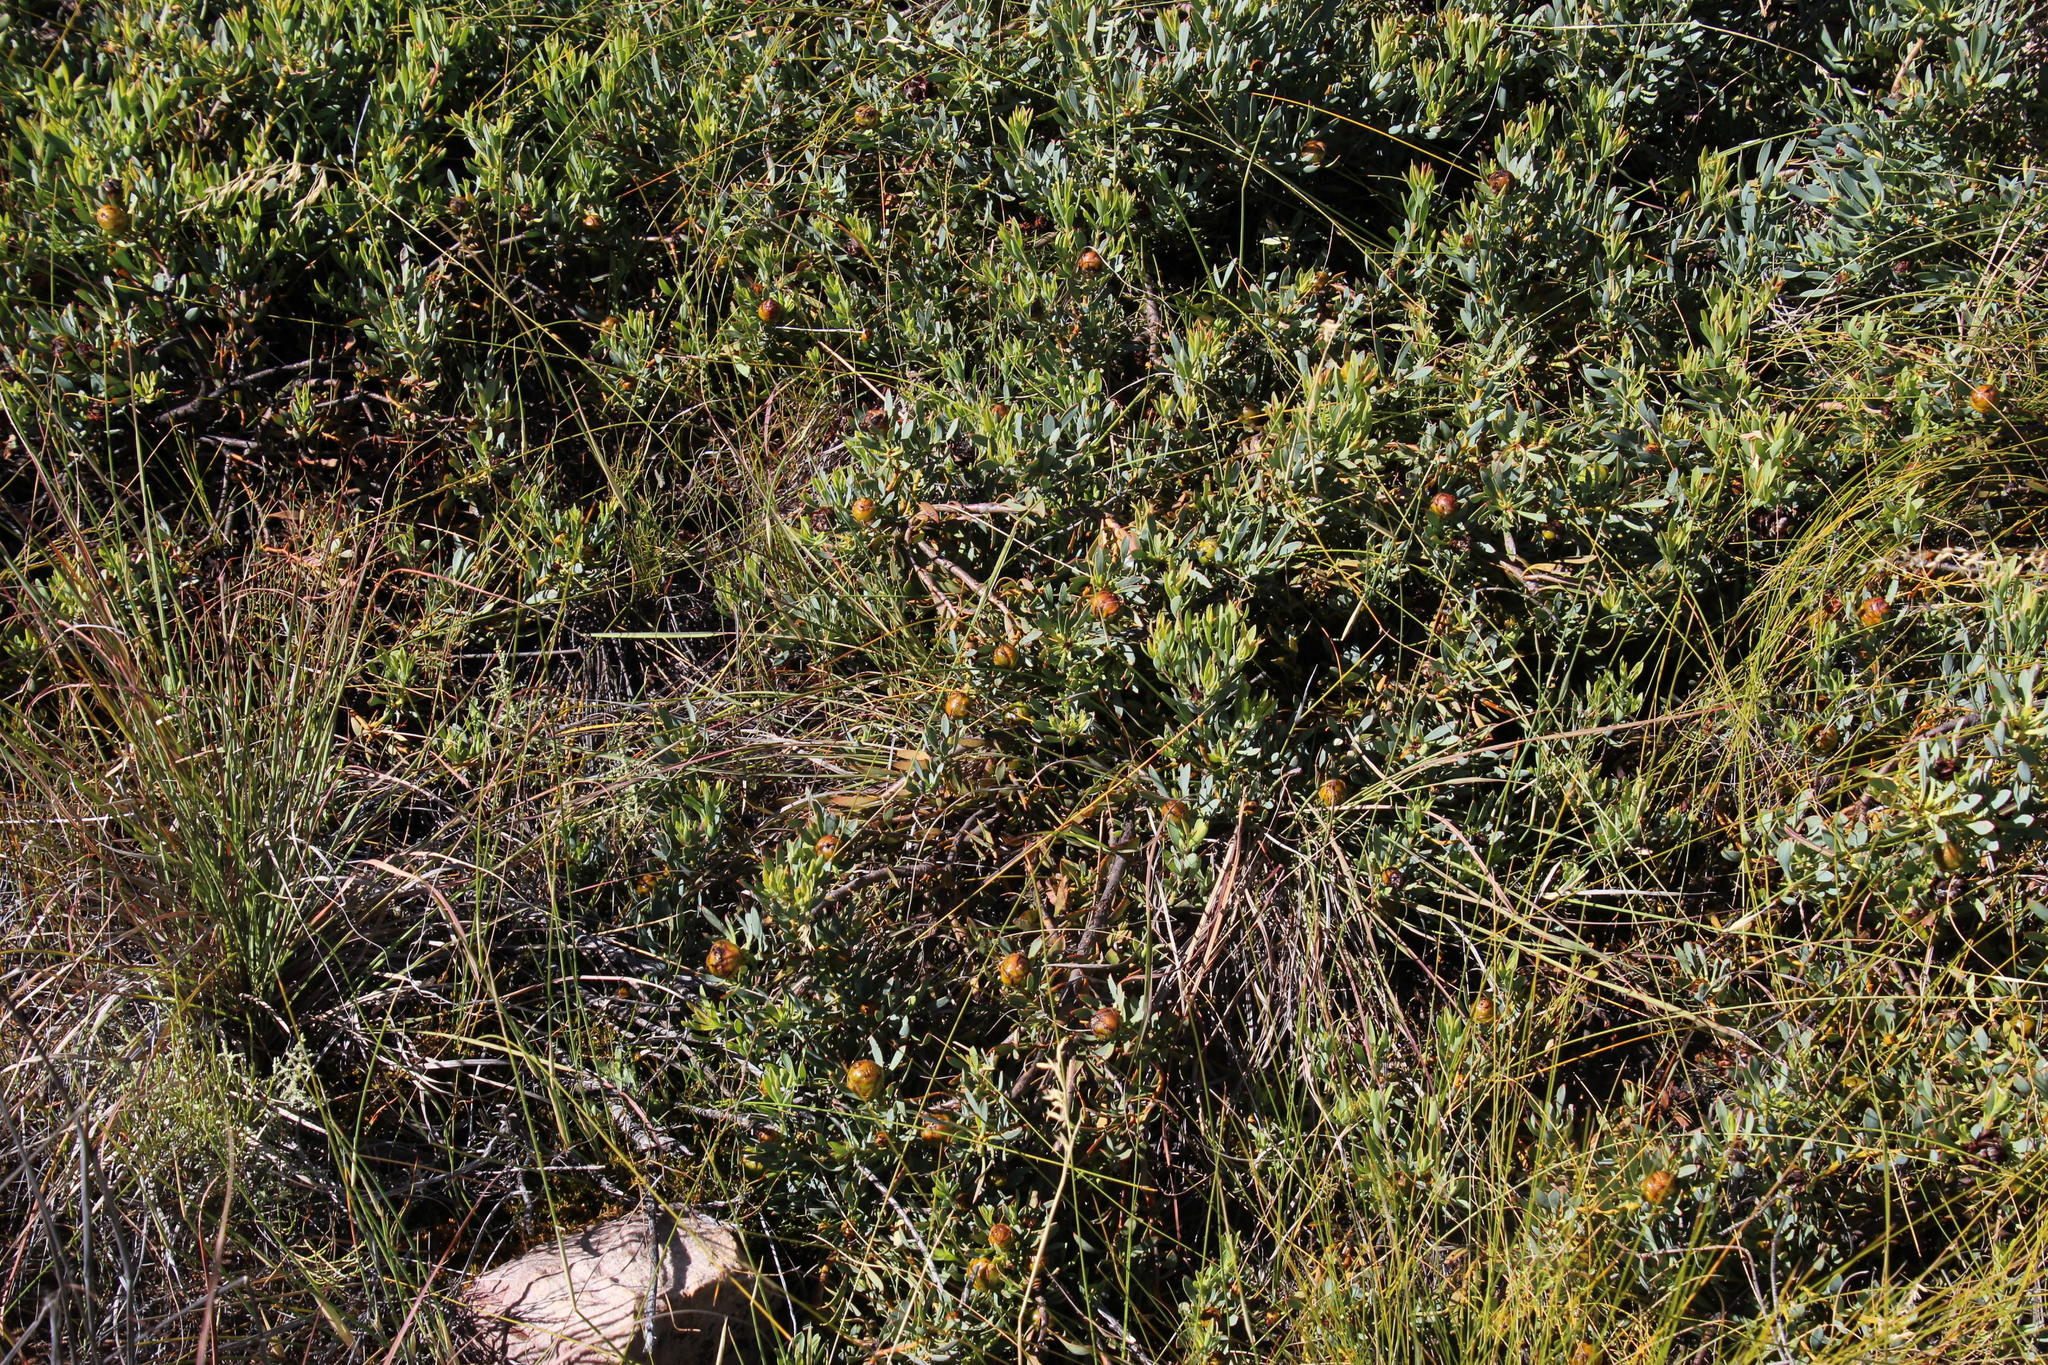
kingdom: Plantae
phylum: Tracheophyta
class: Magnoliopsida
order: Proteales
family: Proteaceae
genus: Leucadendron
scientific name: Leucadendron glaberrimum
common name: Common oily conebush
